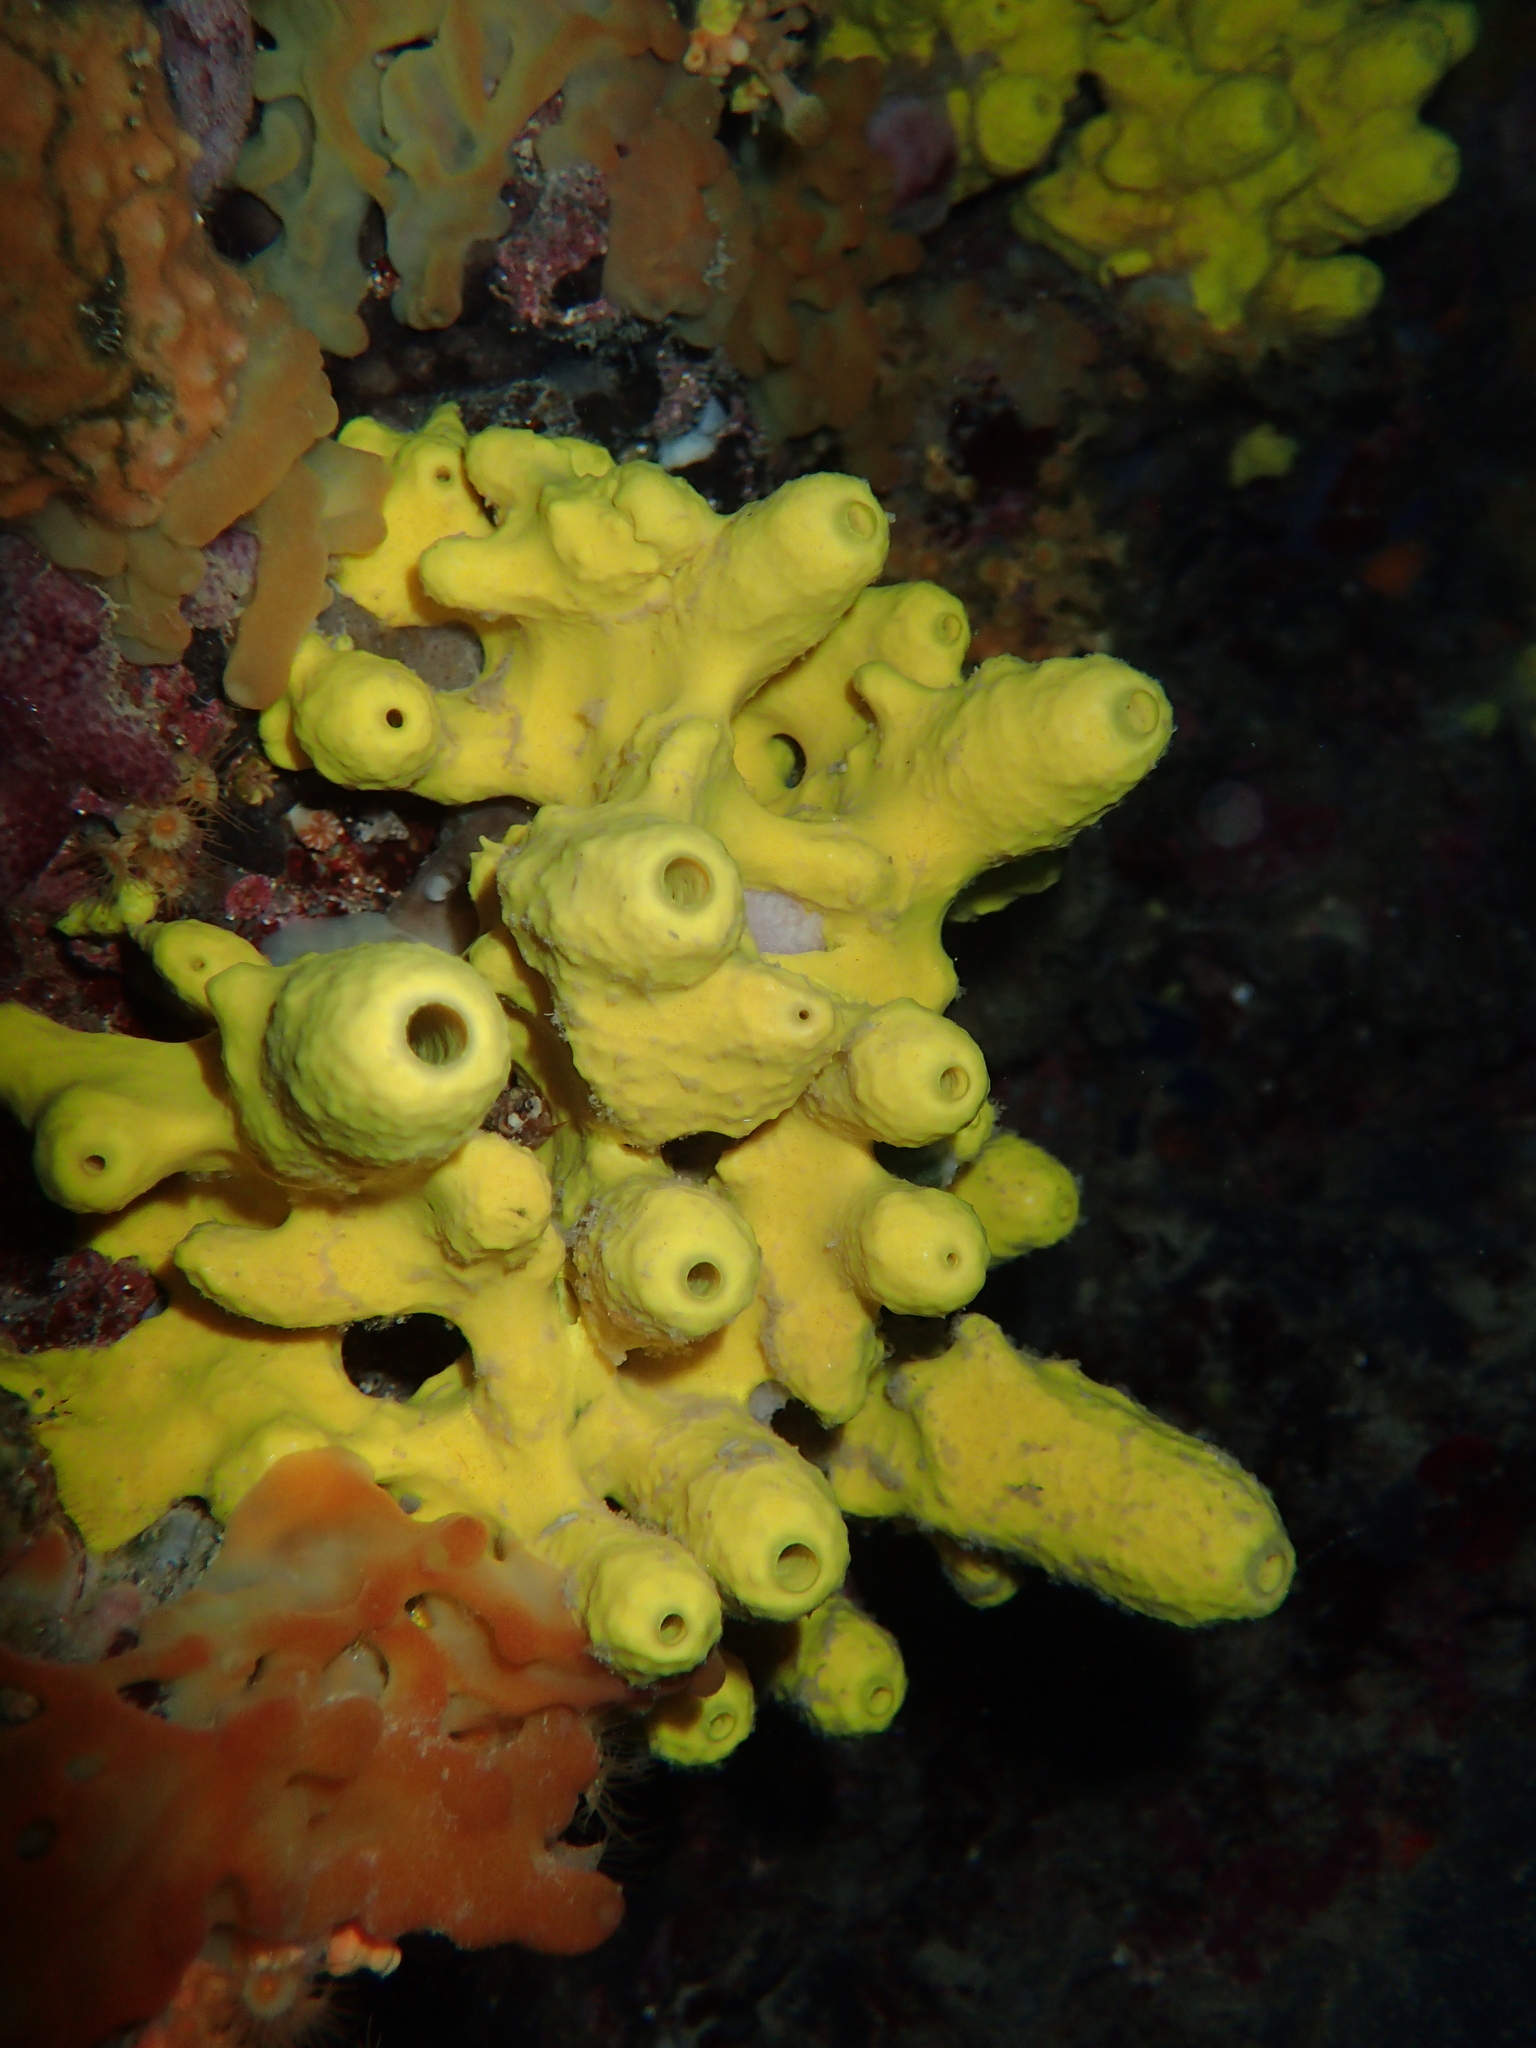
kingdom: Animalia
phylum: Porifera
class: Demospongiae
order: Verongiida
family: Aplysinidae
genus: Aplysina
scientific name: Aplysina aerophoba
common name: Aureate sponge
